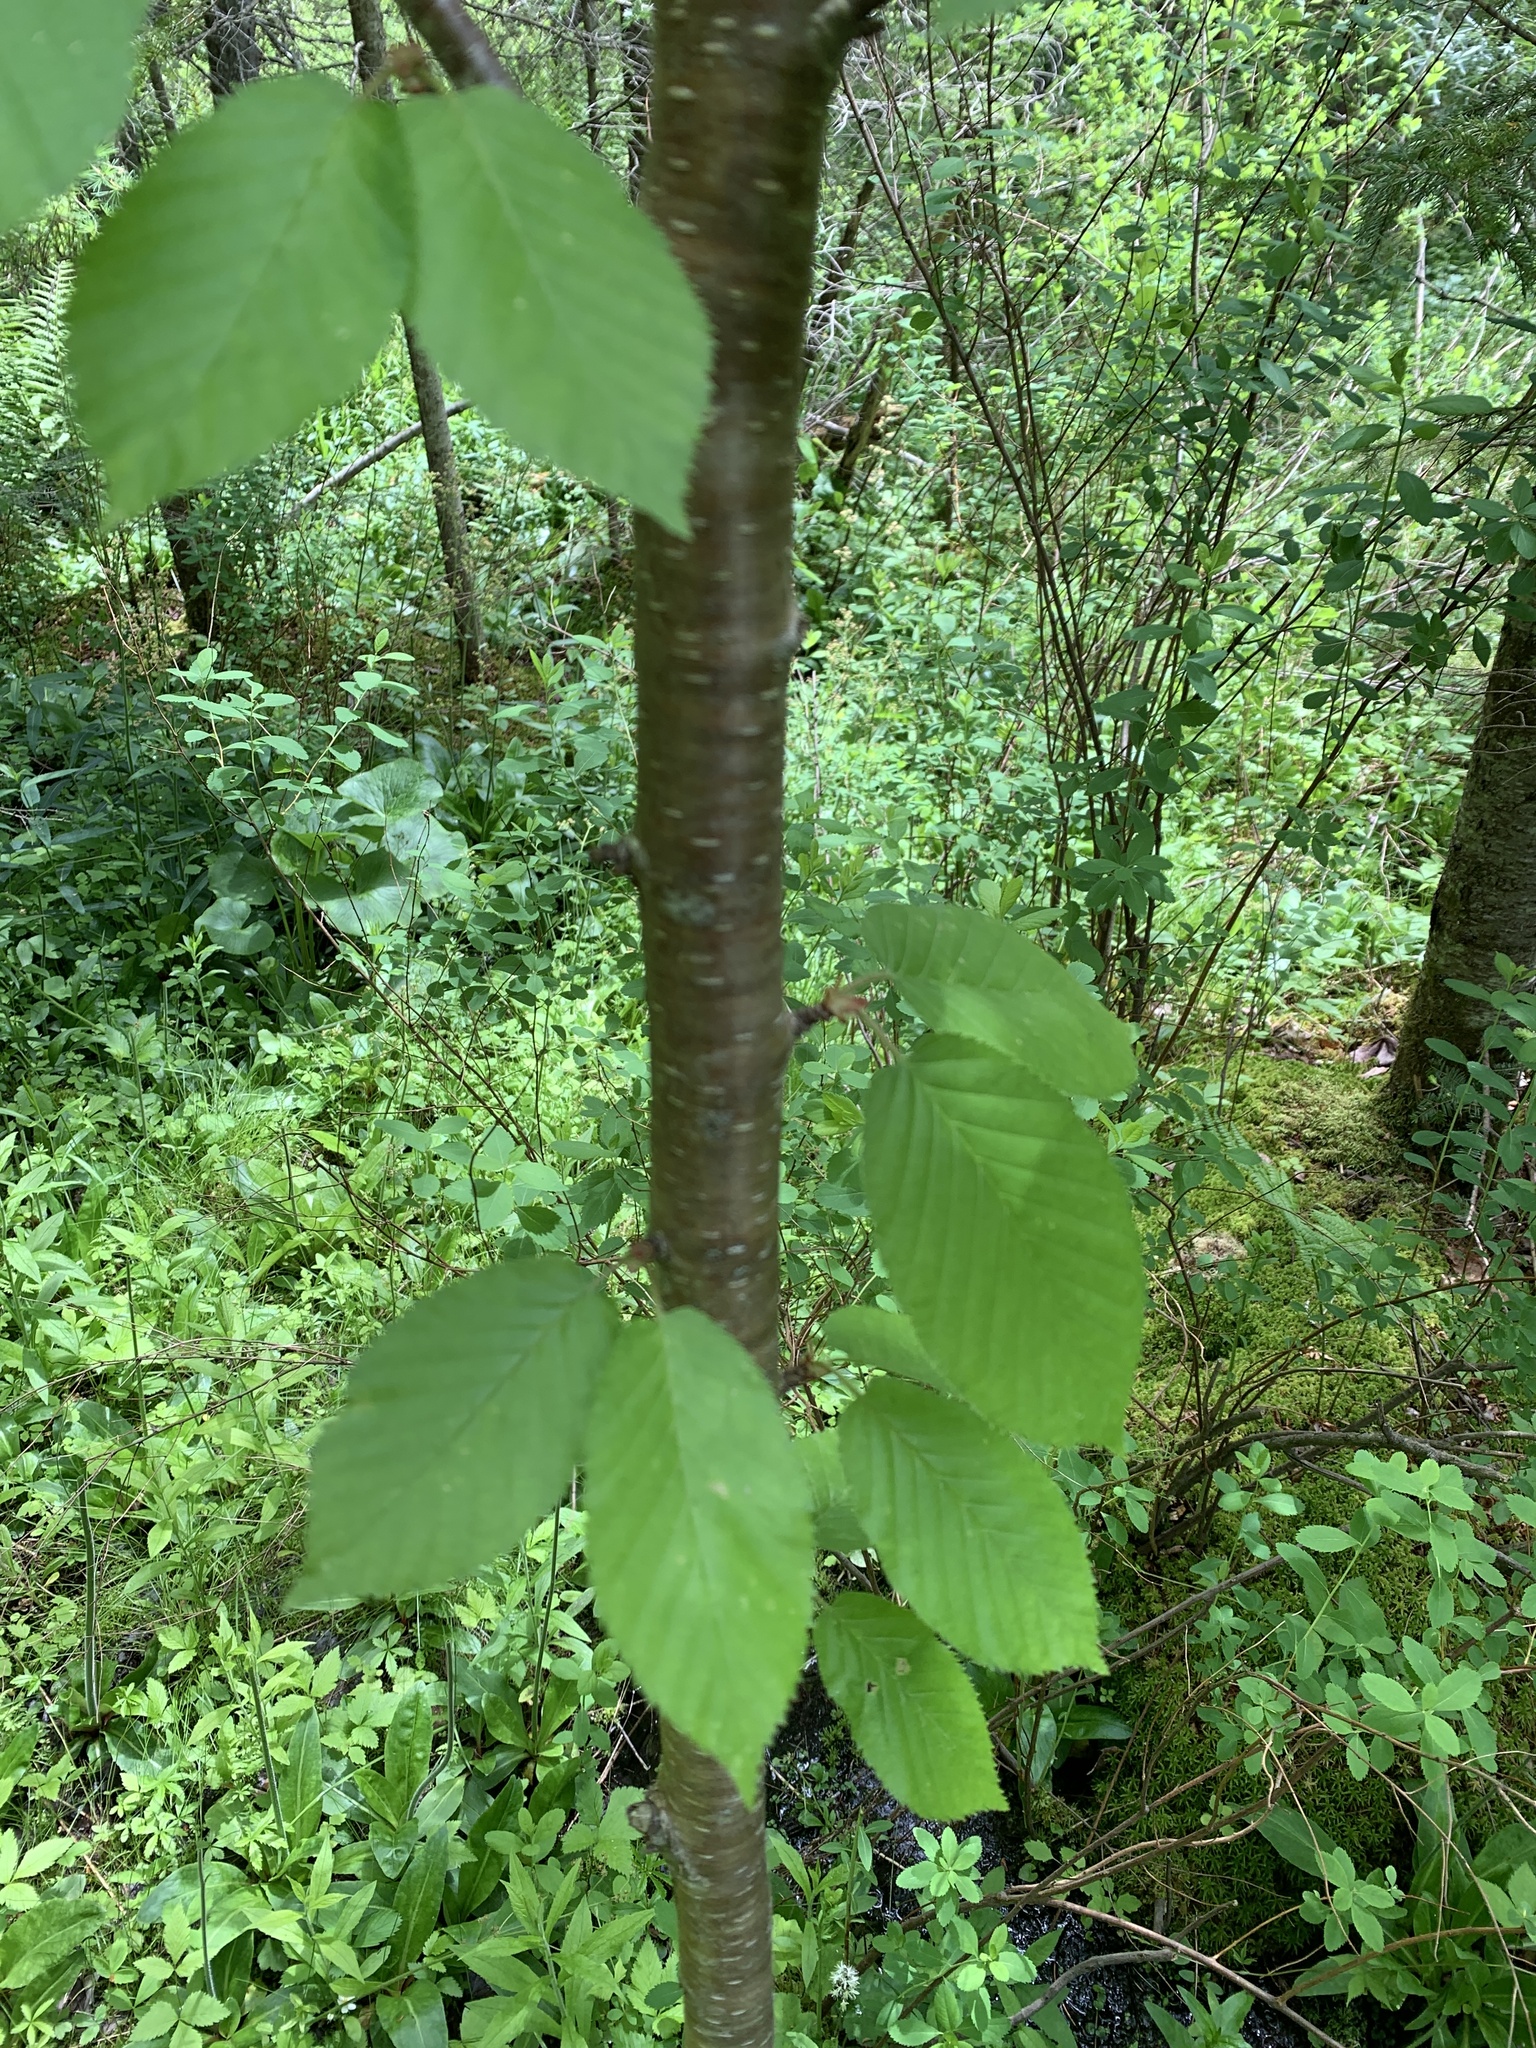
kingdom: Plantae
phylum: Tracheophyta
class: Magnoliopsida
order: Fagales
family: Betulaceae
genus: Betula
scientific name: Betula alleghaniensis
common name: Yellow birch
